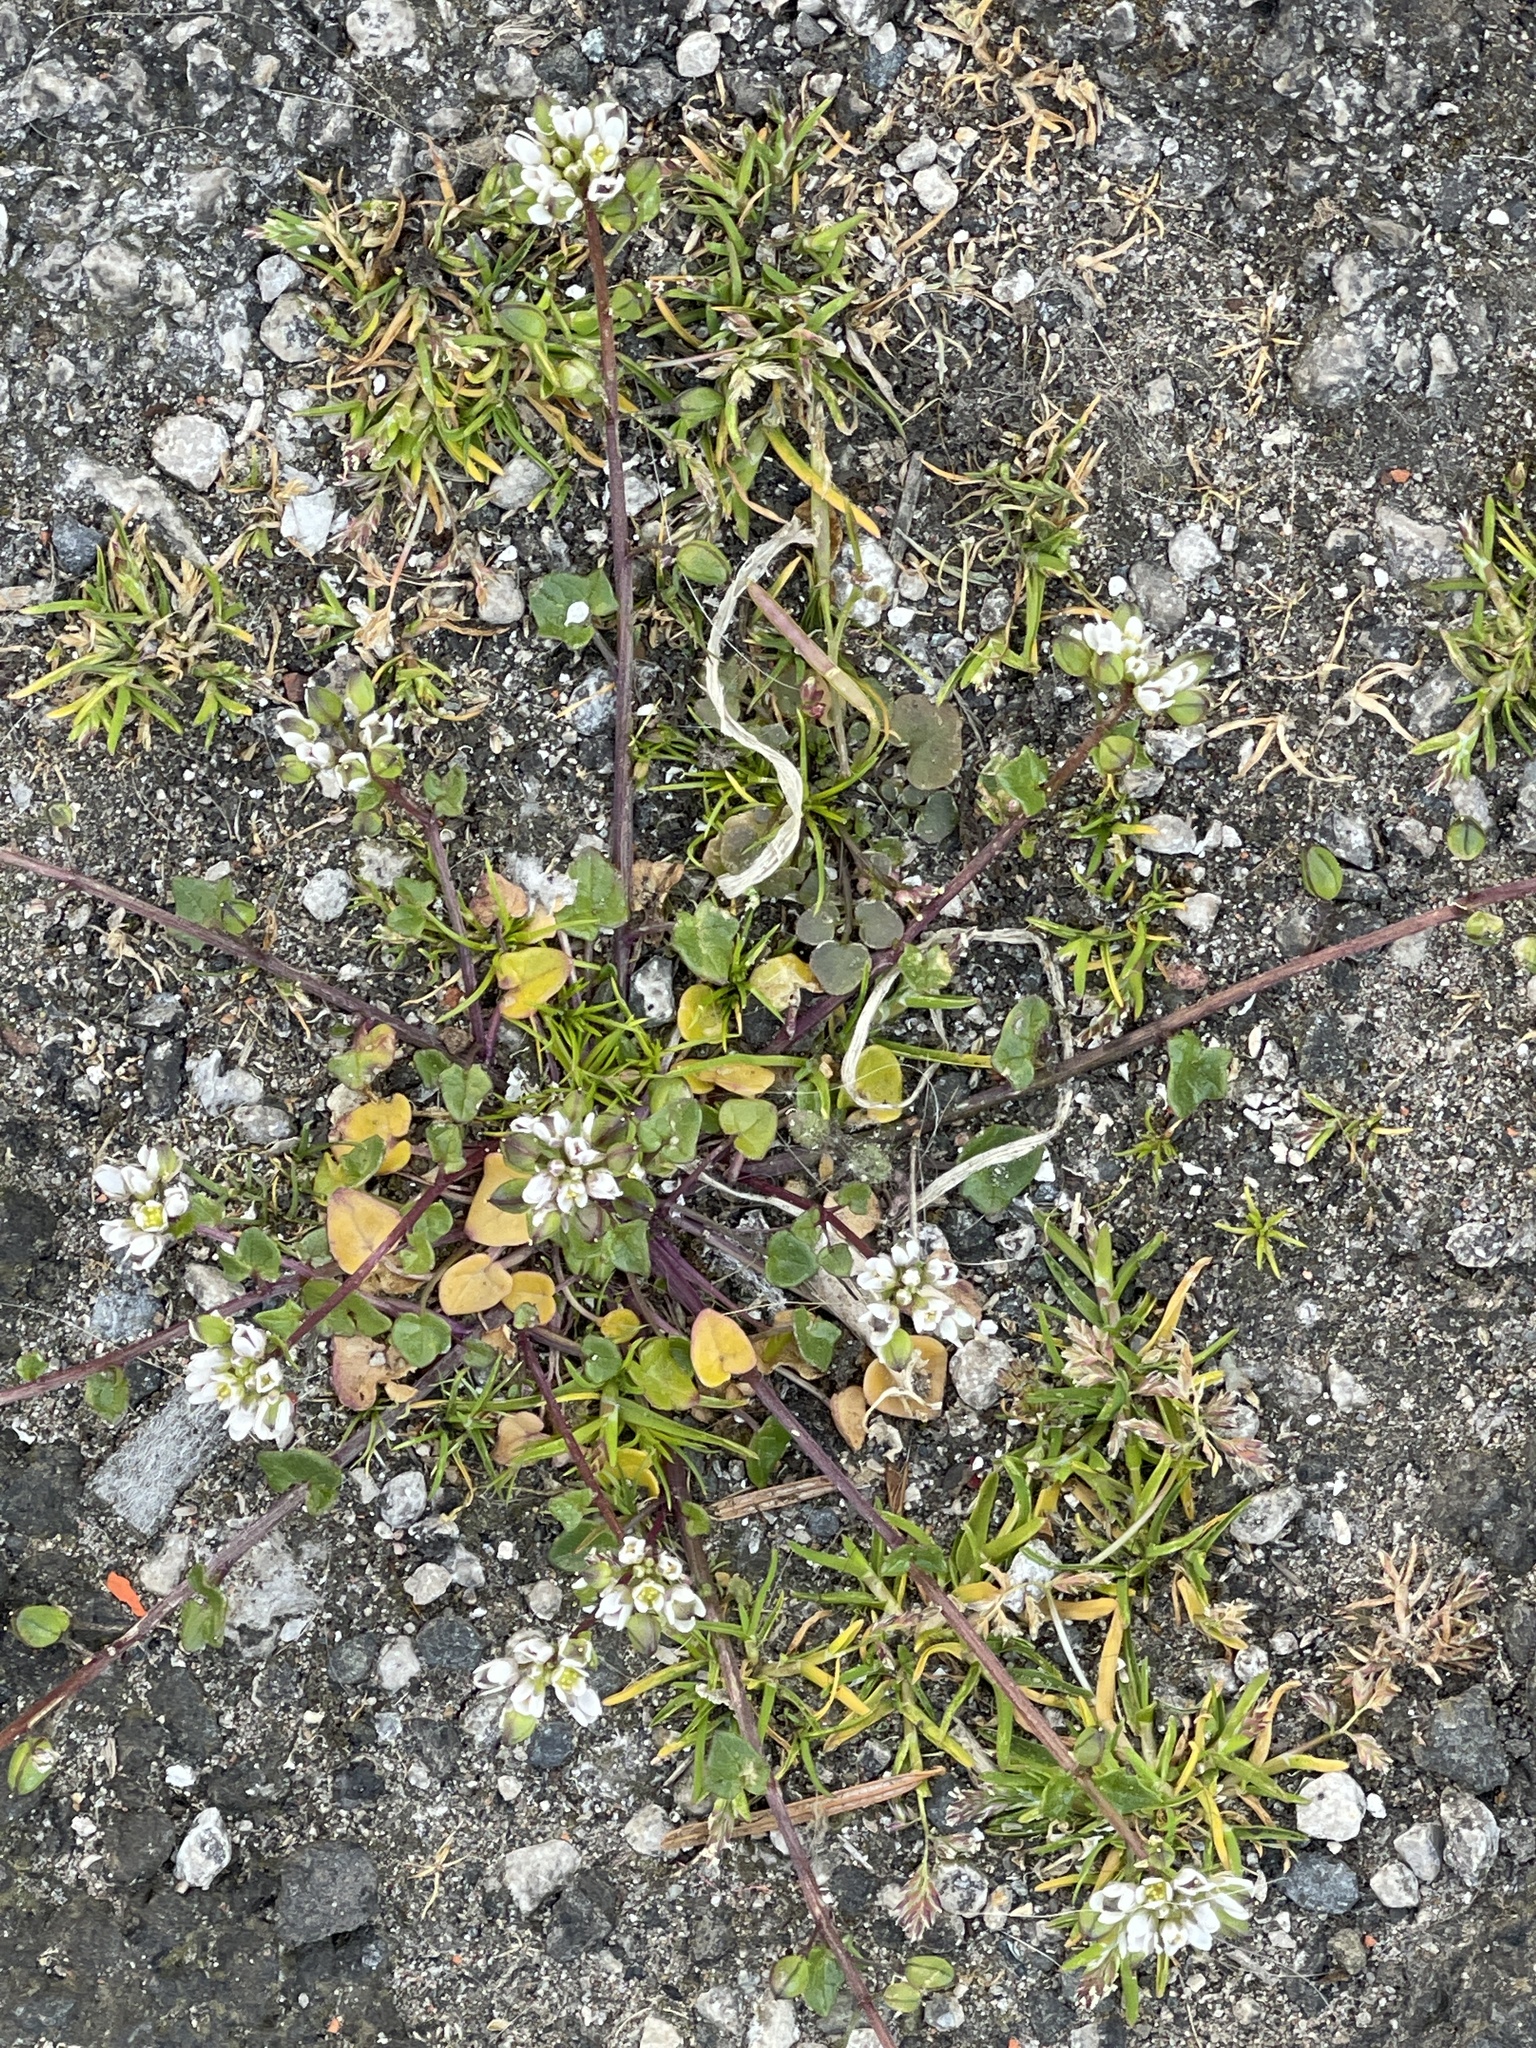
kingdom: Plantae
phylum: Tracheophyta
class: Magnoliopsida
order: Brassicales
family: Brassicaceae
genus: Cochlearia
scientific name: Cochlearia danica
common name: Early scurvygrass
